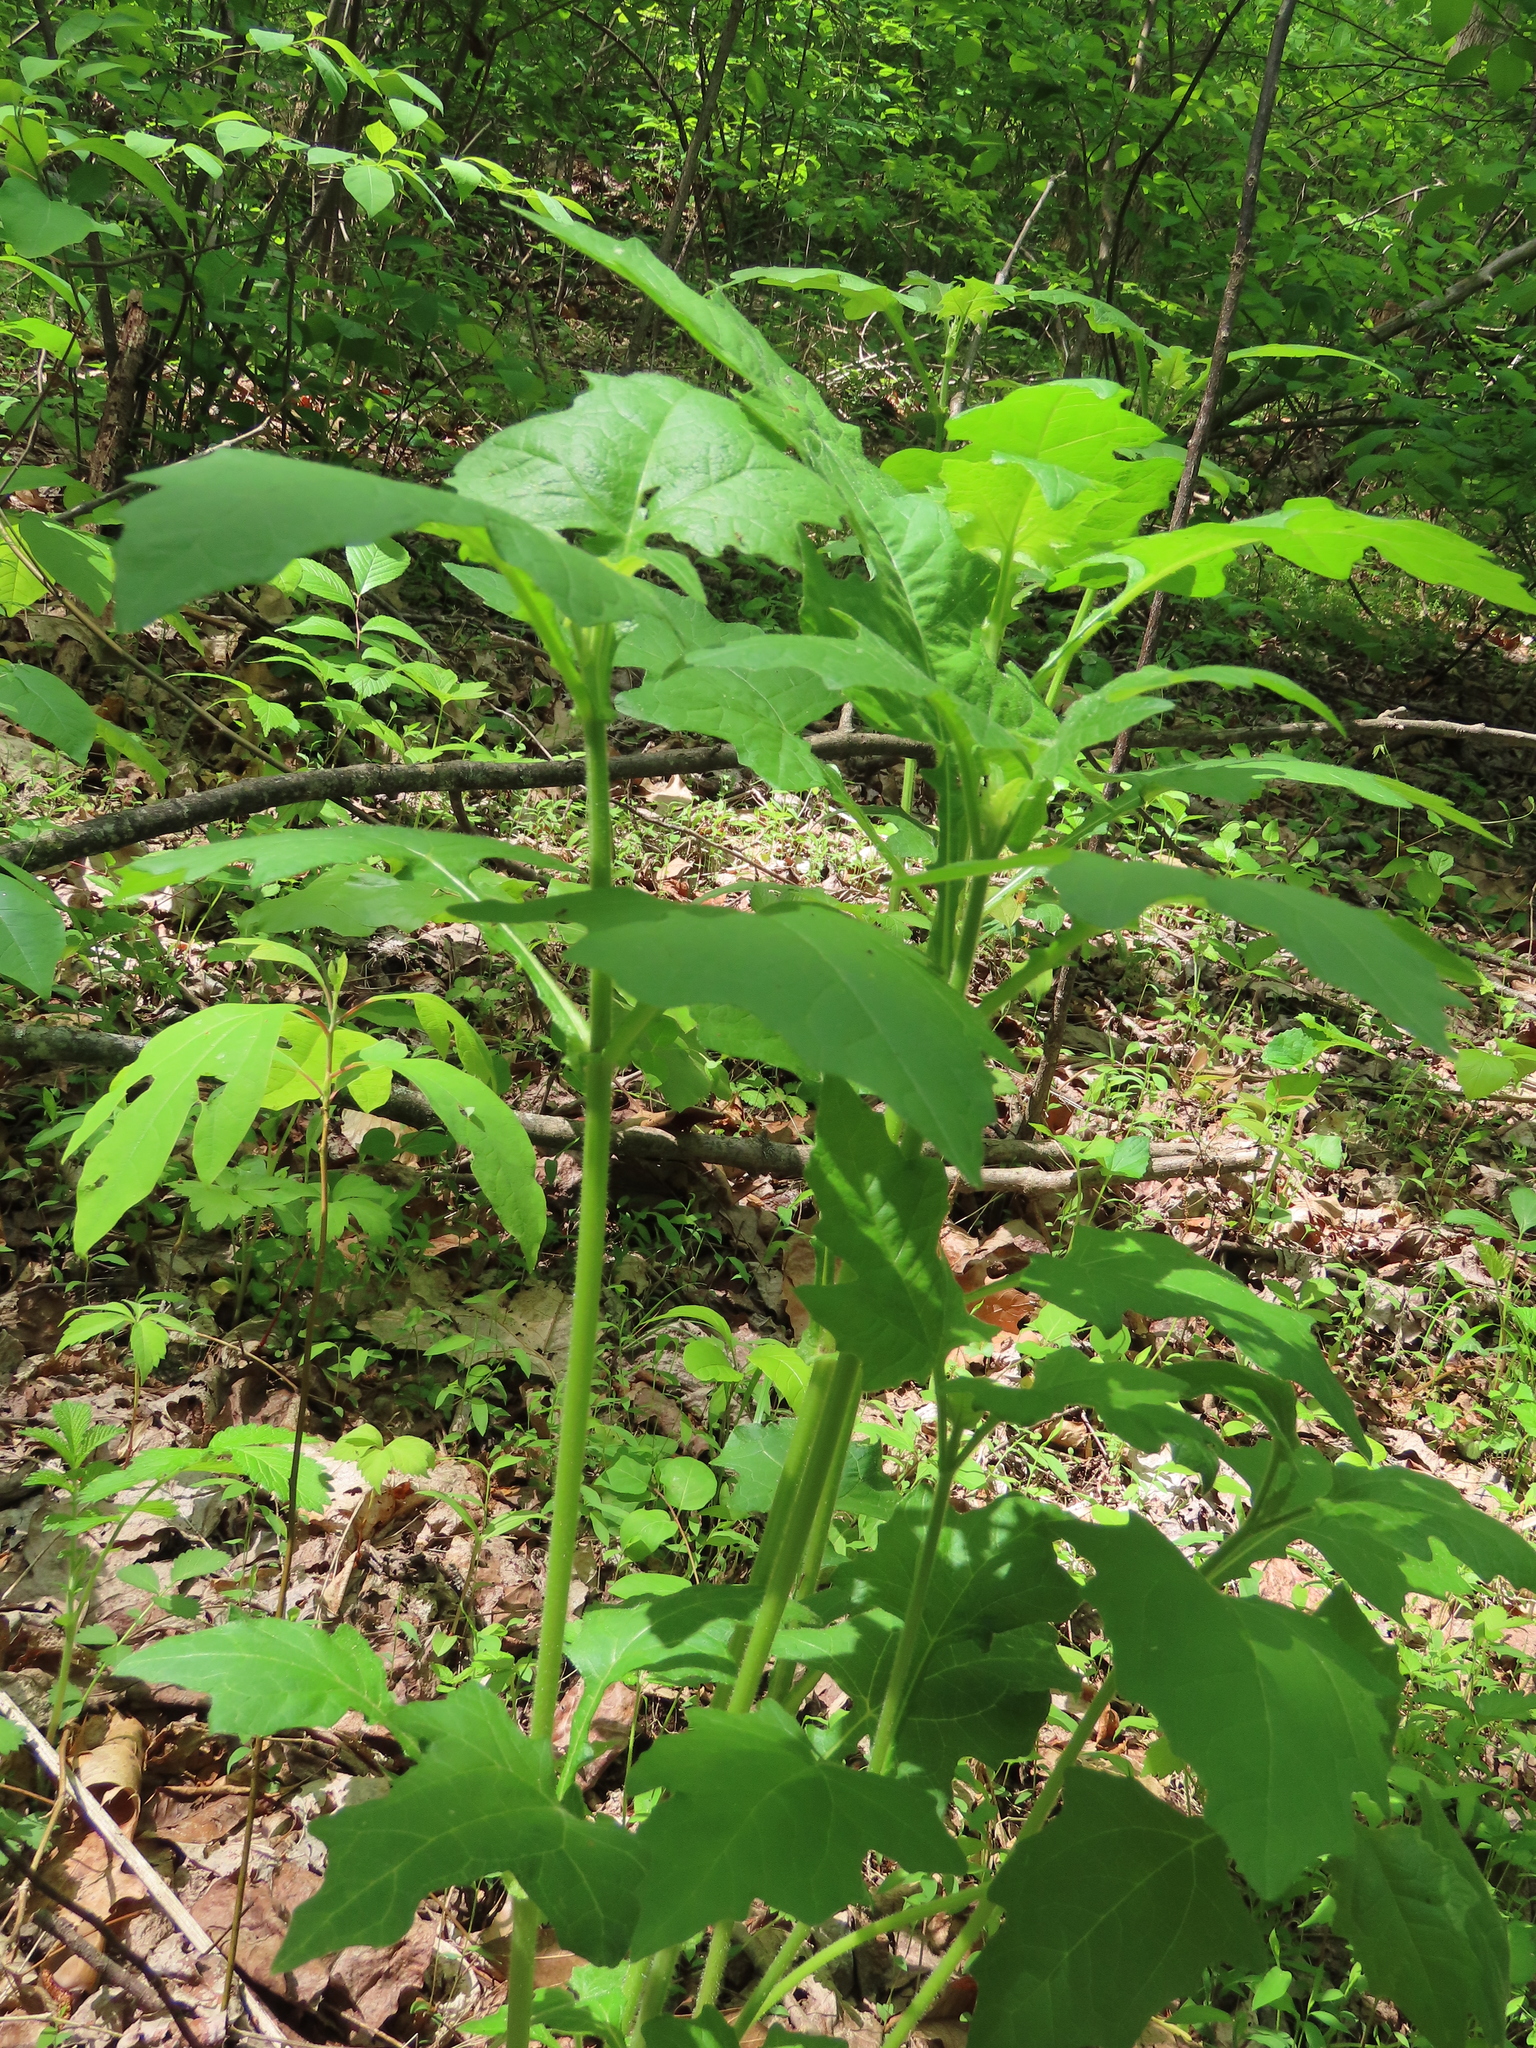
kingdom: Plantae
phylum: Tracheophyta
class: Magnoliopsida
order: Asterales
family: Asteraceae
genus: Smallanthus
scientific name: Smallanthus uvedalia
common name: Bear's-foot
